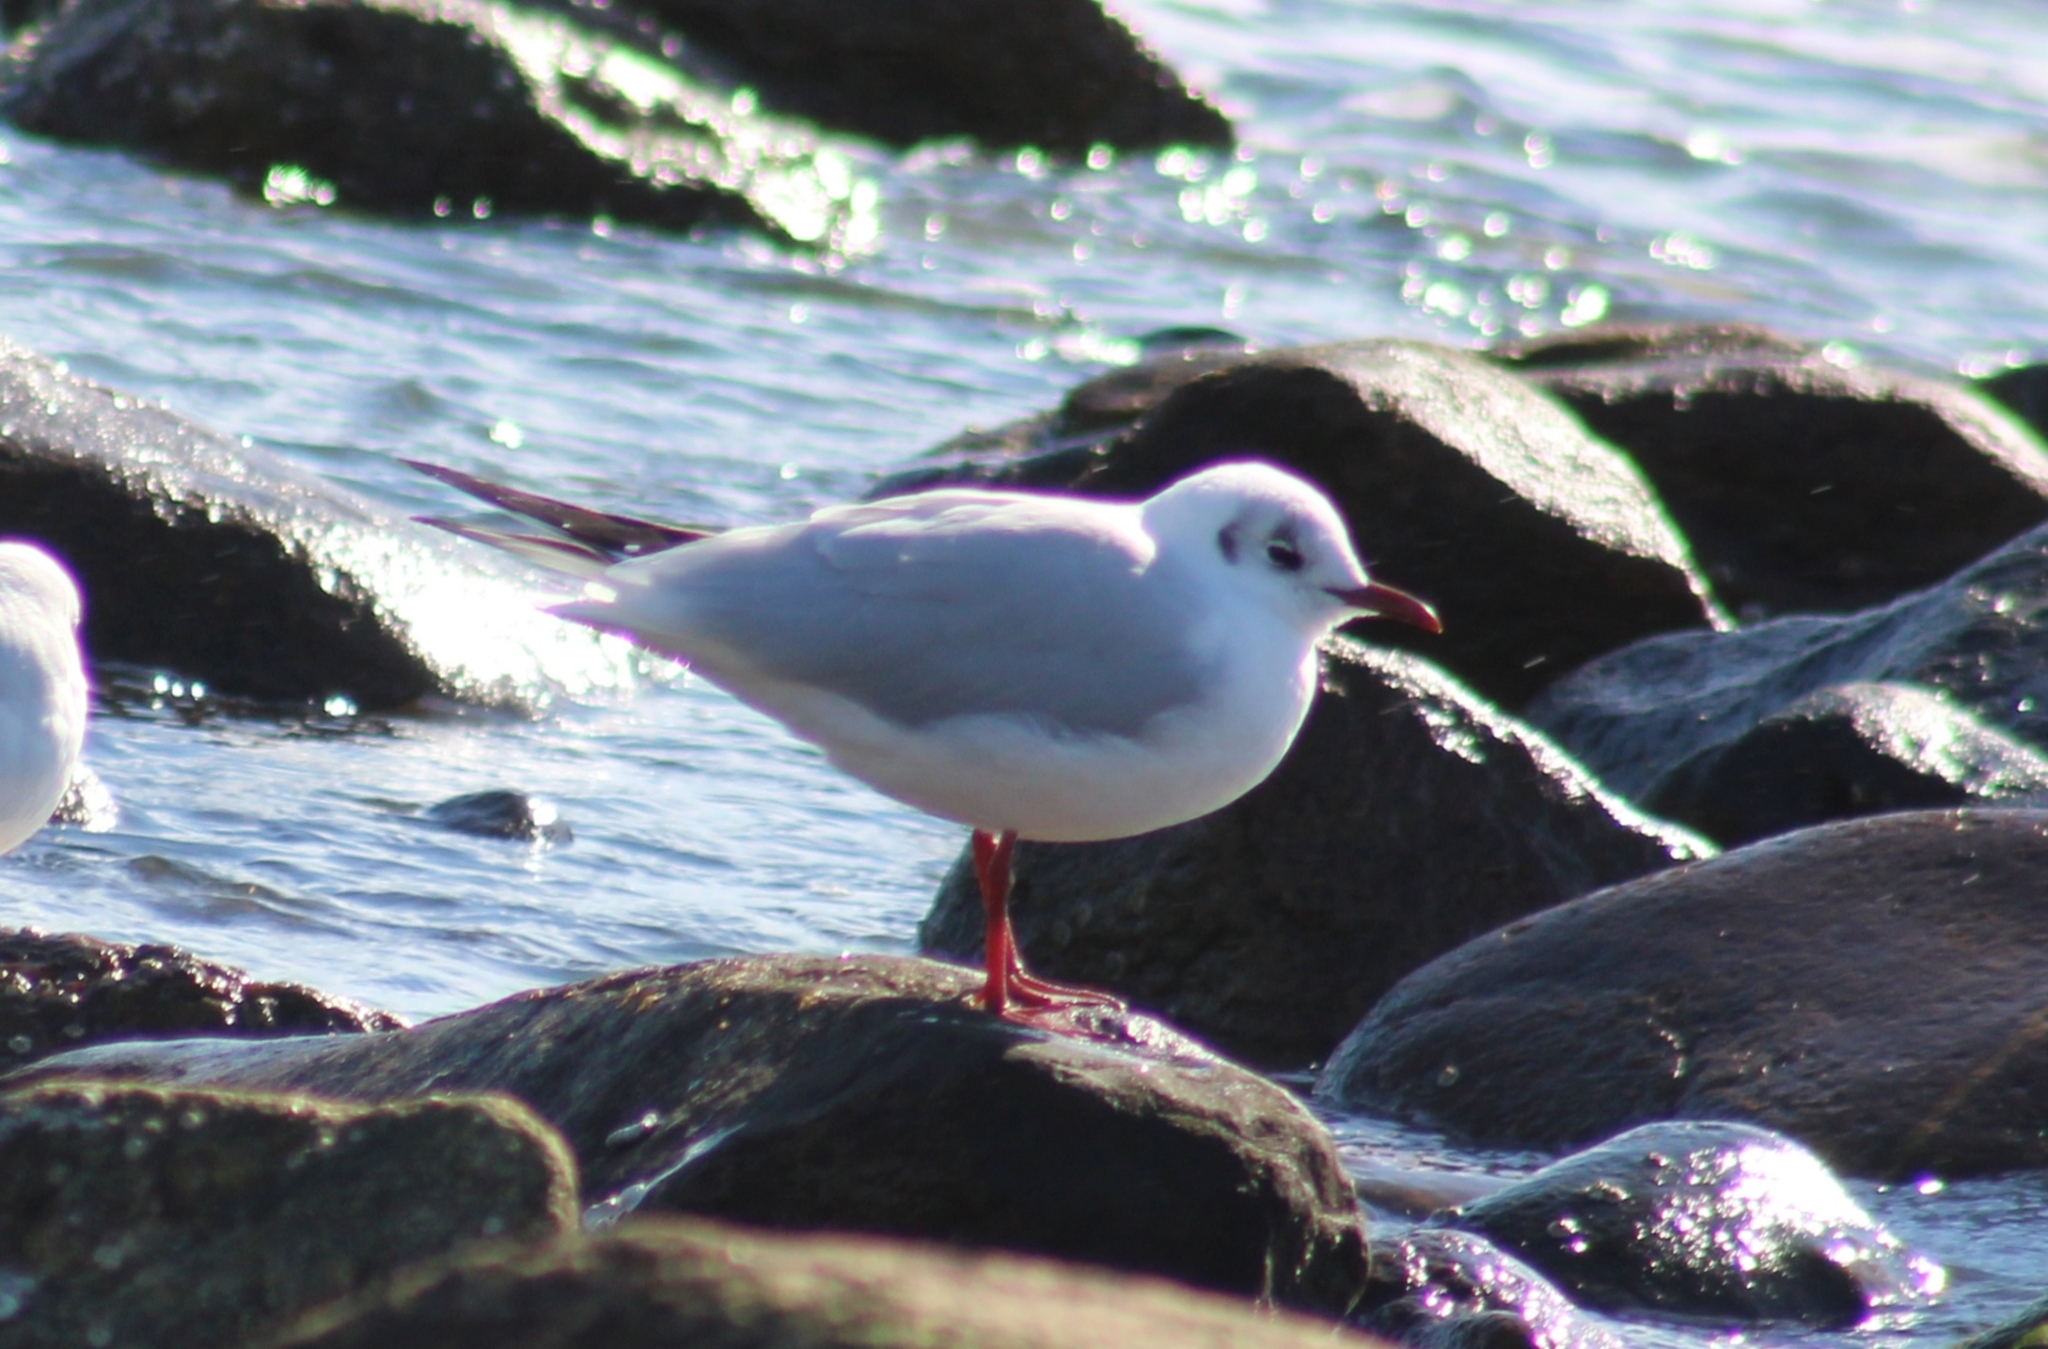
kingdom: Animalia
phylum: Chordata
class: Aves
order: Charadriiformes
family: Laridae
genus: Chroicocephalus
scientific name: Chroicocephalus ridibundus
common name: Black-headed gull
